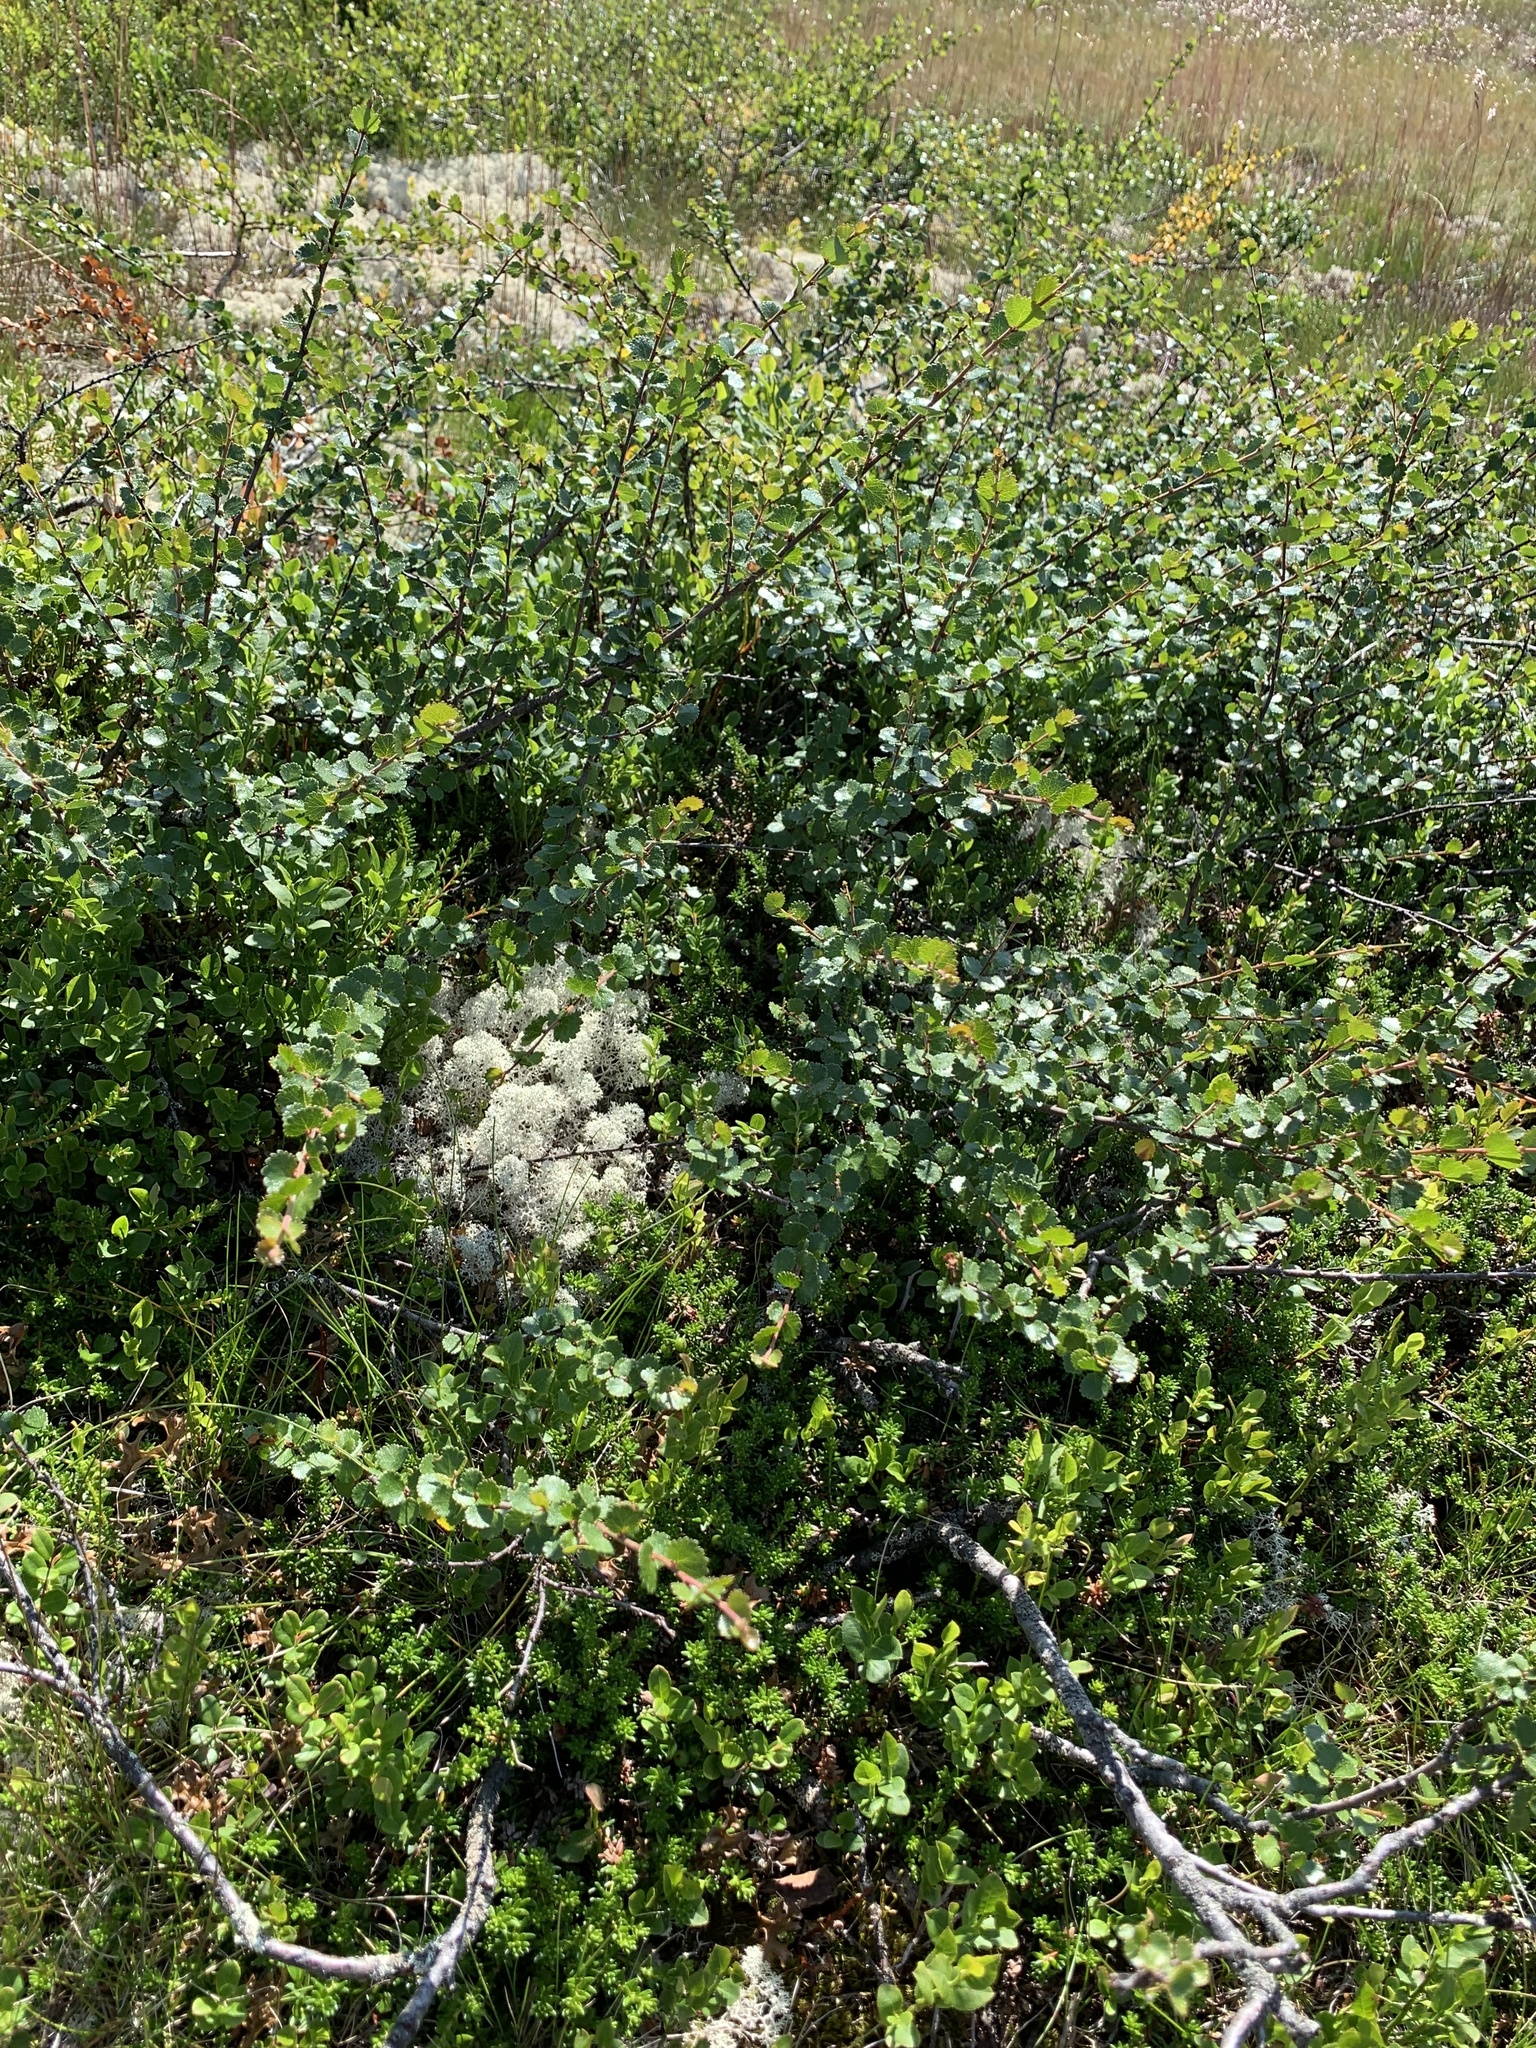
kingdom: Plantae
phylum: Tracheophyta
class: Magnoliopsida
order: Fagales
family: Betulaceae
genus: Betula
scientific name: Betula nana
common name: Arctic dwarf birch
